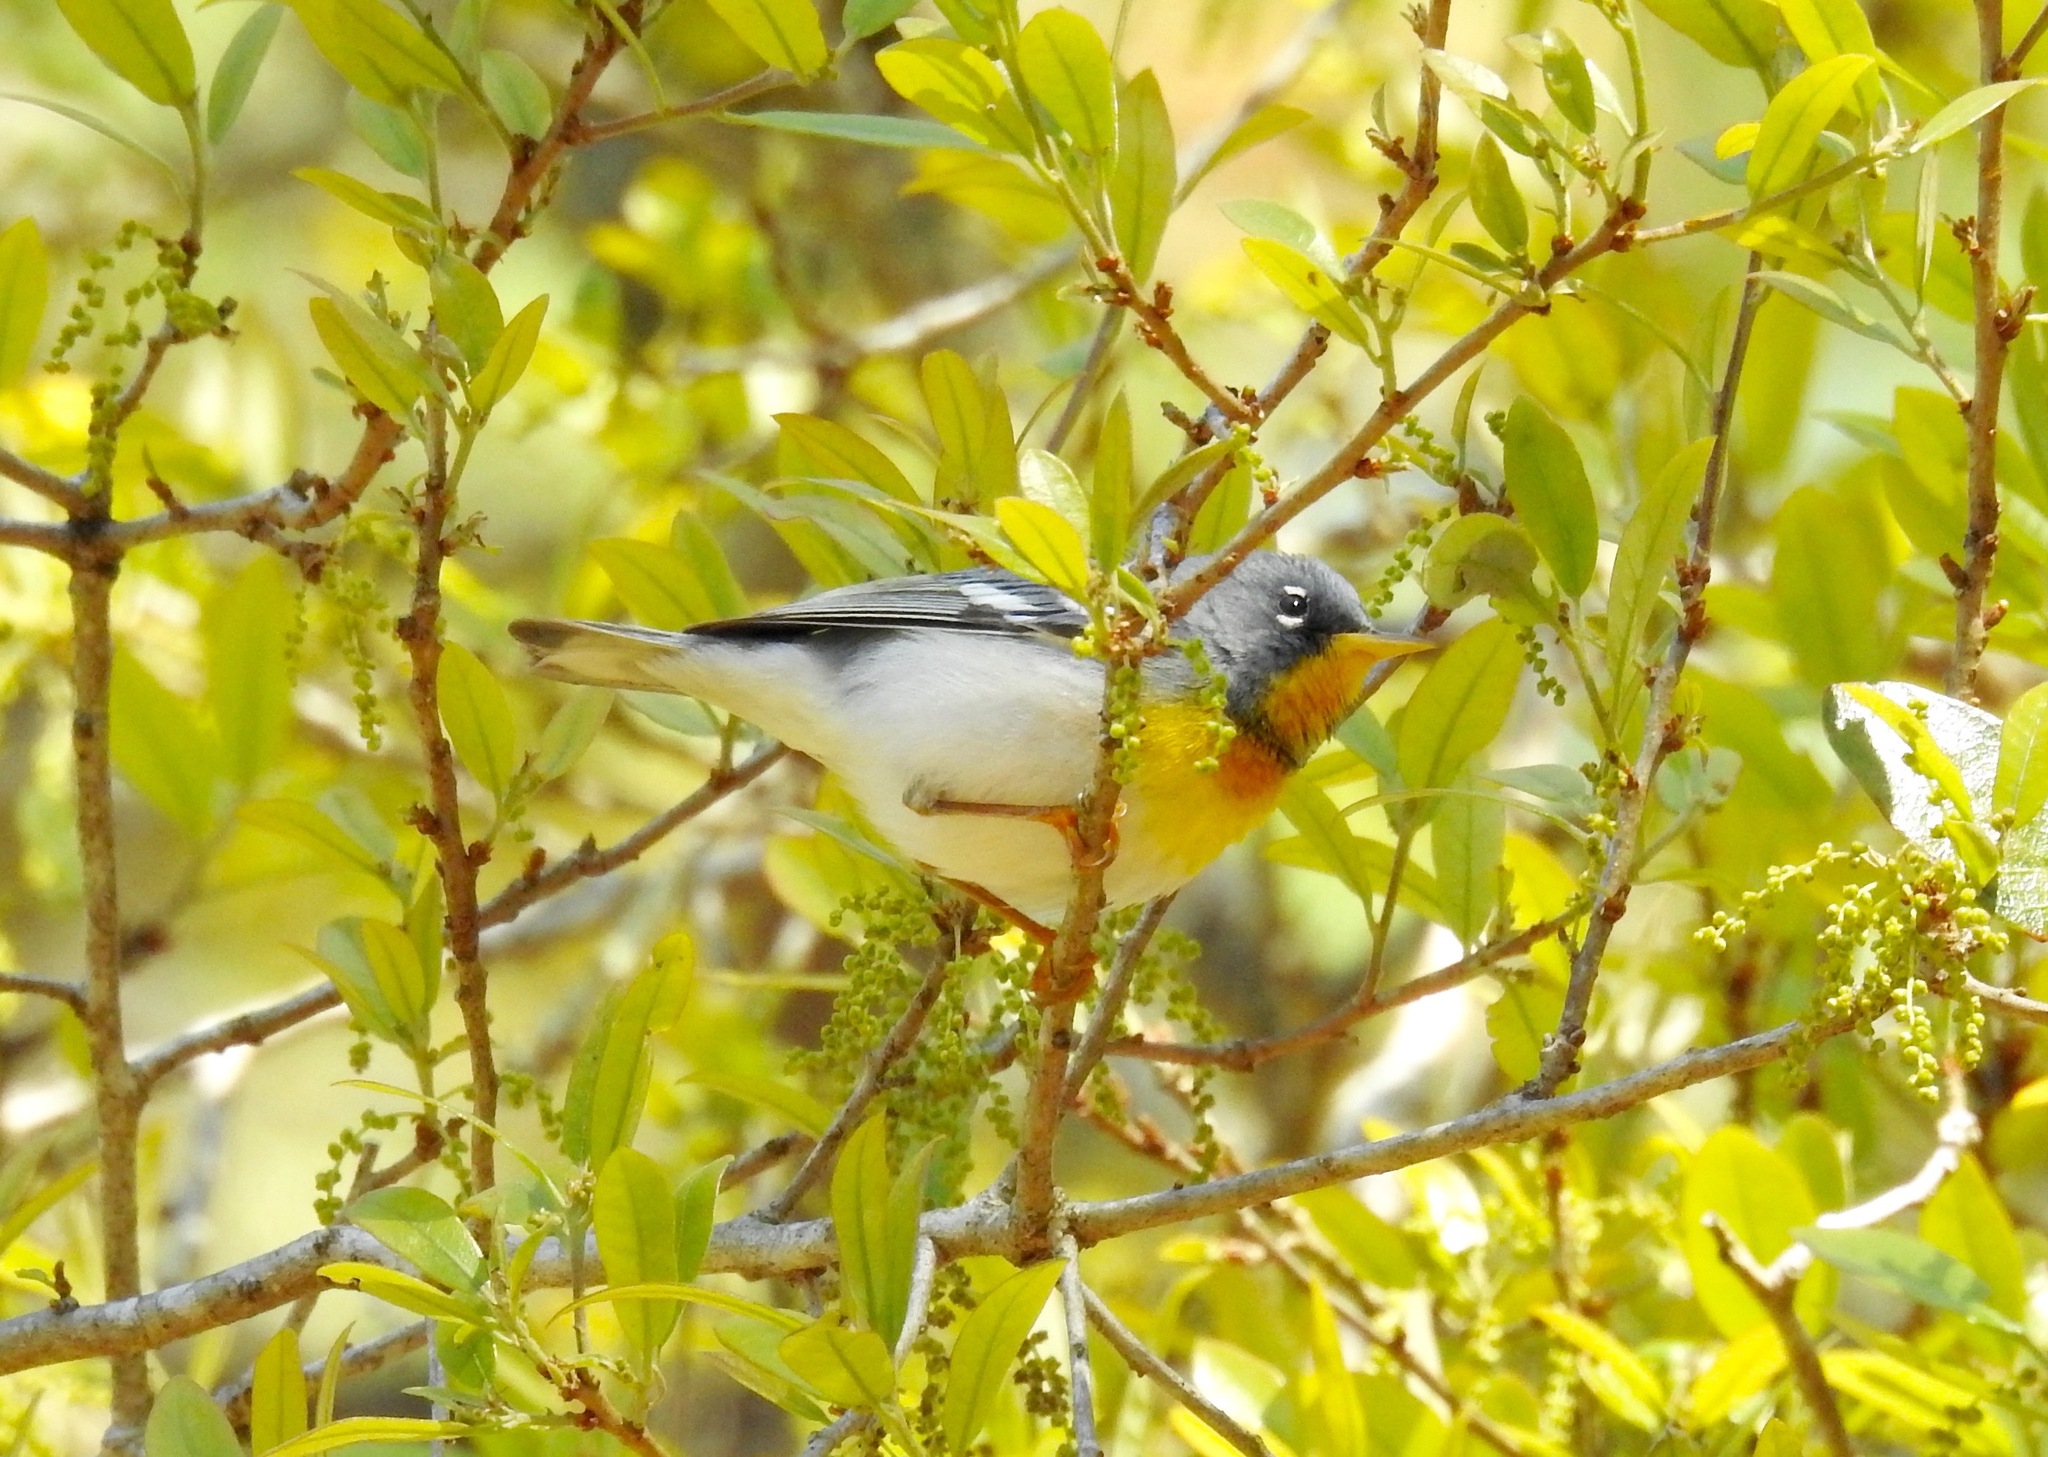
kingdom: Animalia
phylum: Chordata
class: Aves
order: Passeriformes
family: Parulidae
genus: Setophaga
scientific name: Setophaga americana
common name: Northern parula
